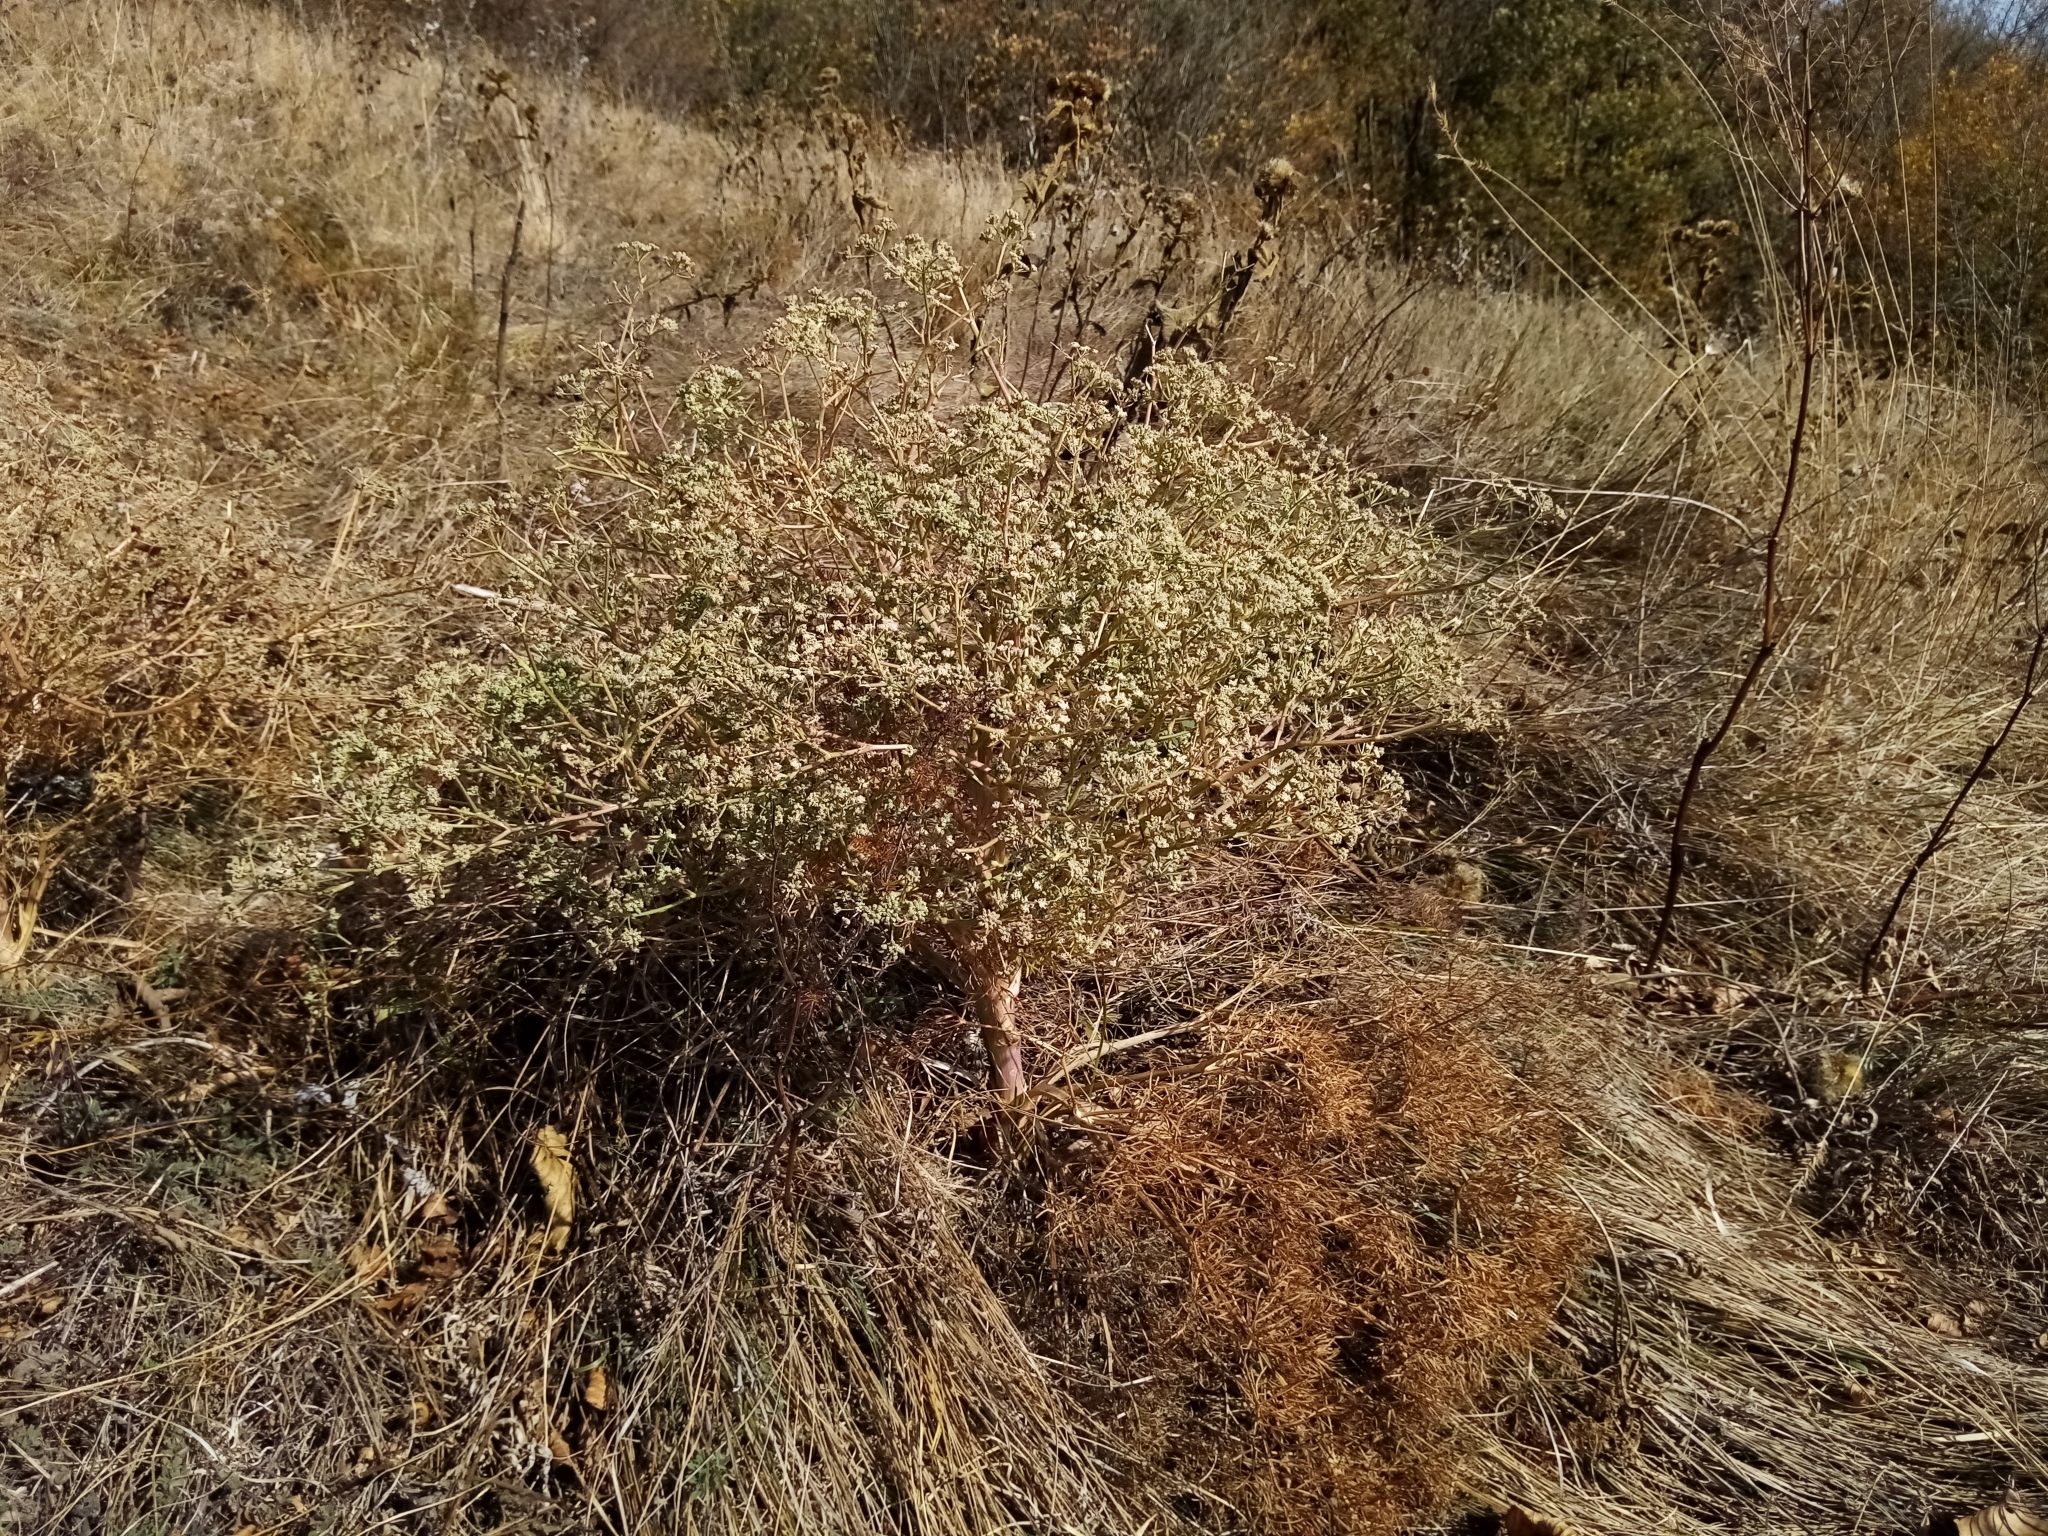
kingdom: Plantae
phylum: Tracheophyta
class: Magnoliopsida
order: Apiales
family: Apiaceae
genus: Seseli
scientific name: Seseli arenarium
